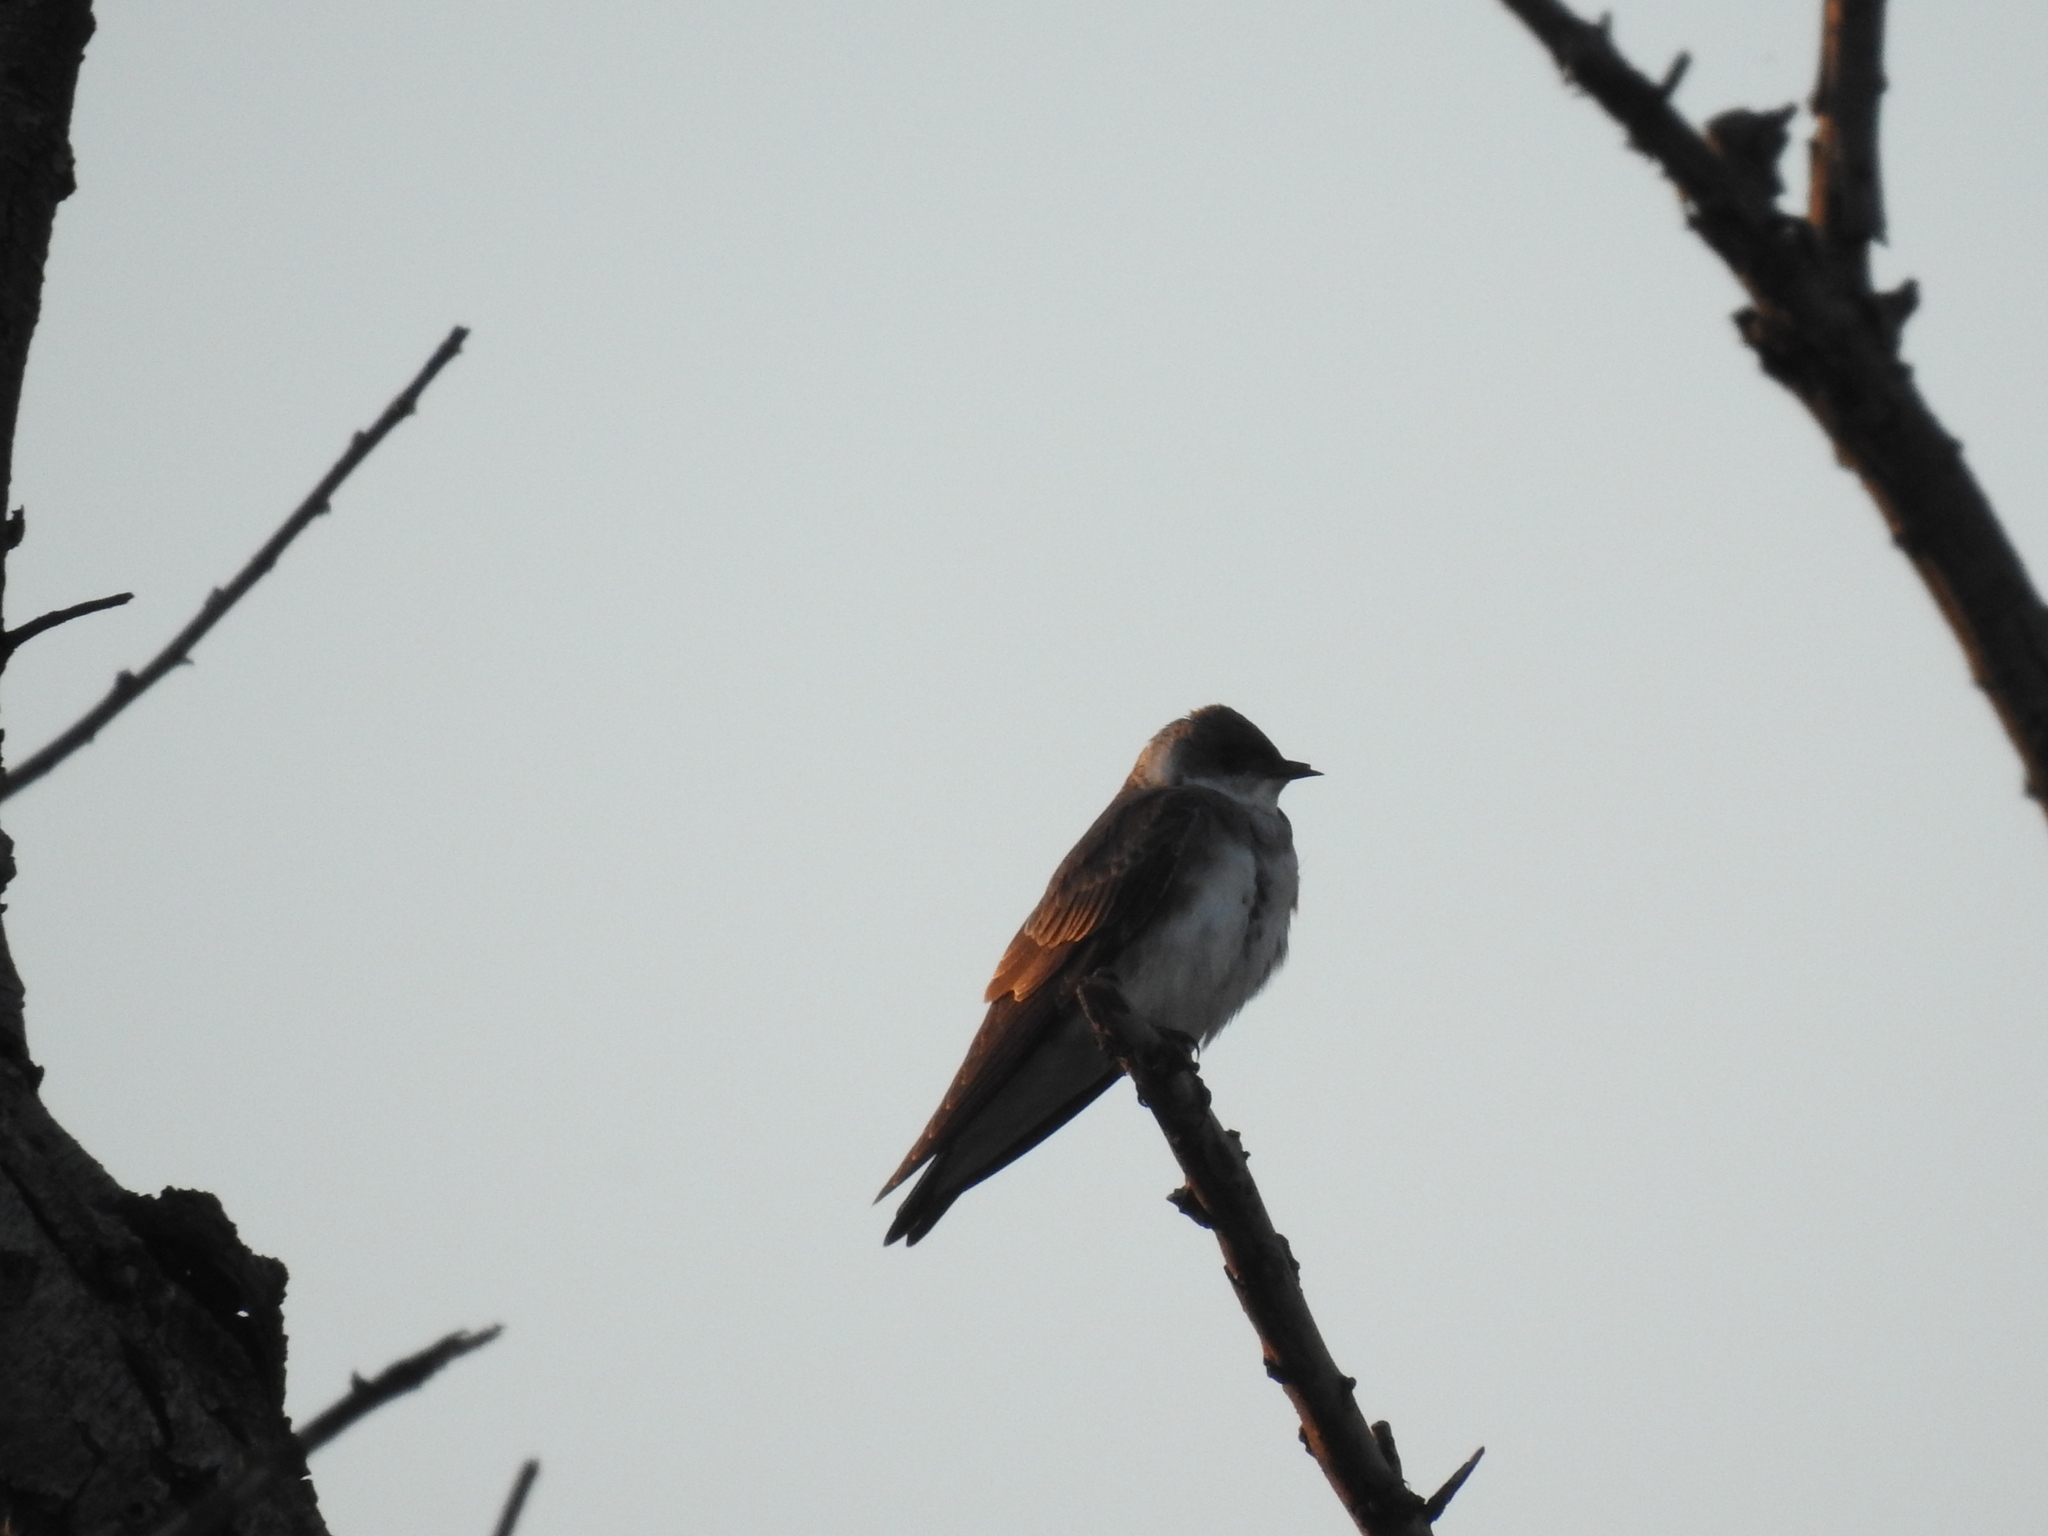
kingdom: Animalia
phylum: Chordata
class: Aves
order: Passeriformes
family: Hirundinidae
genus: Progne
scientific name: Progne tapera
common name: Brown-chested martin
